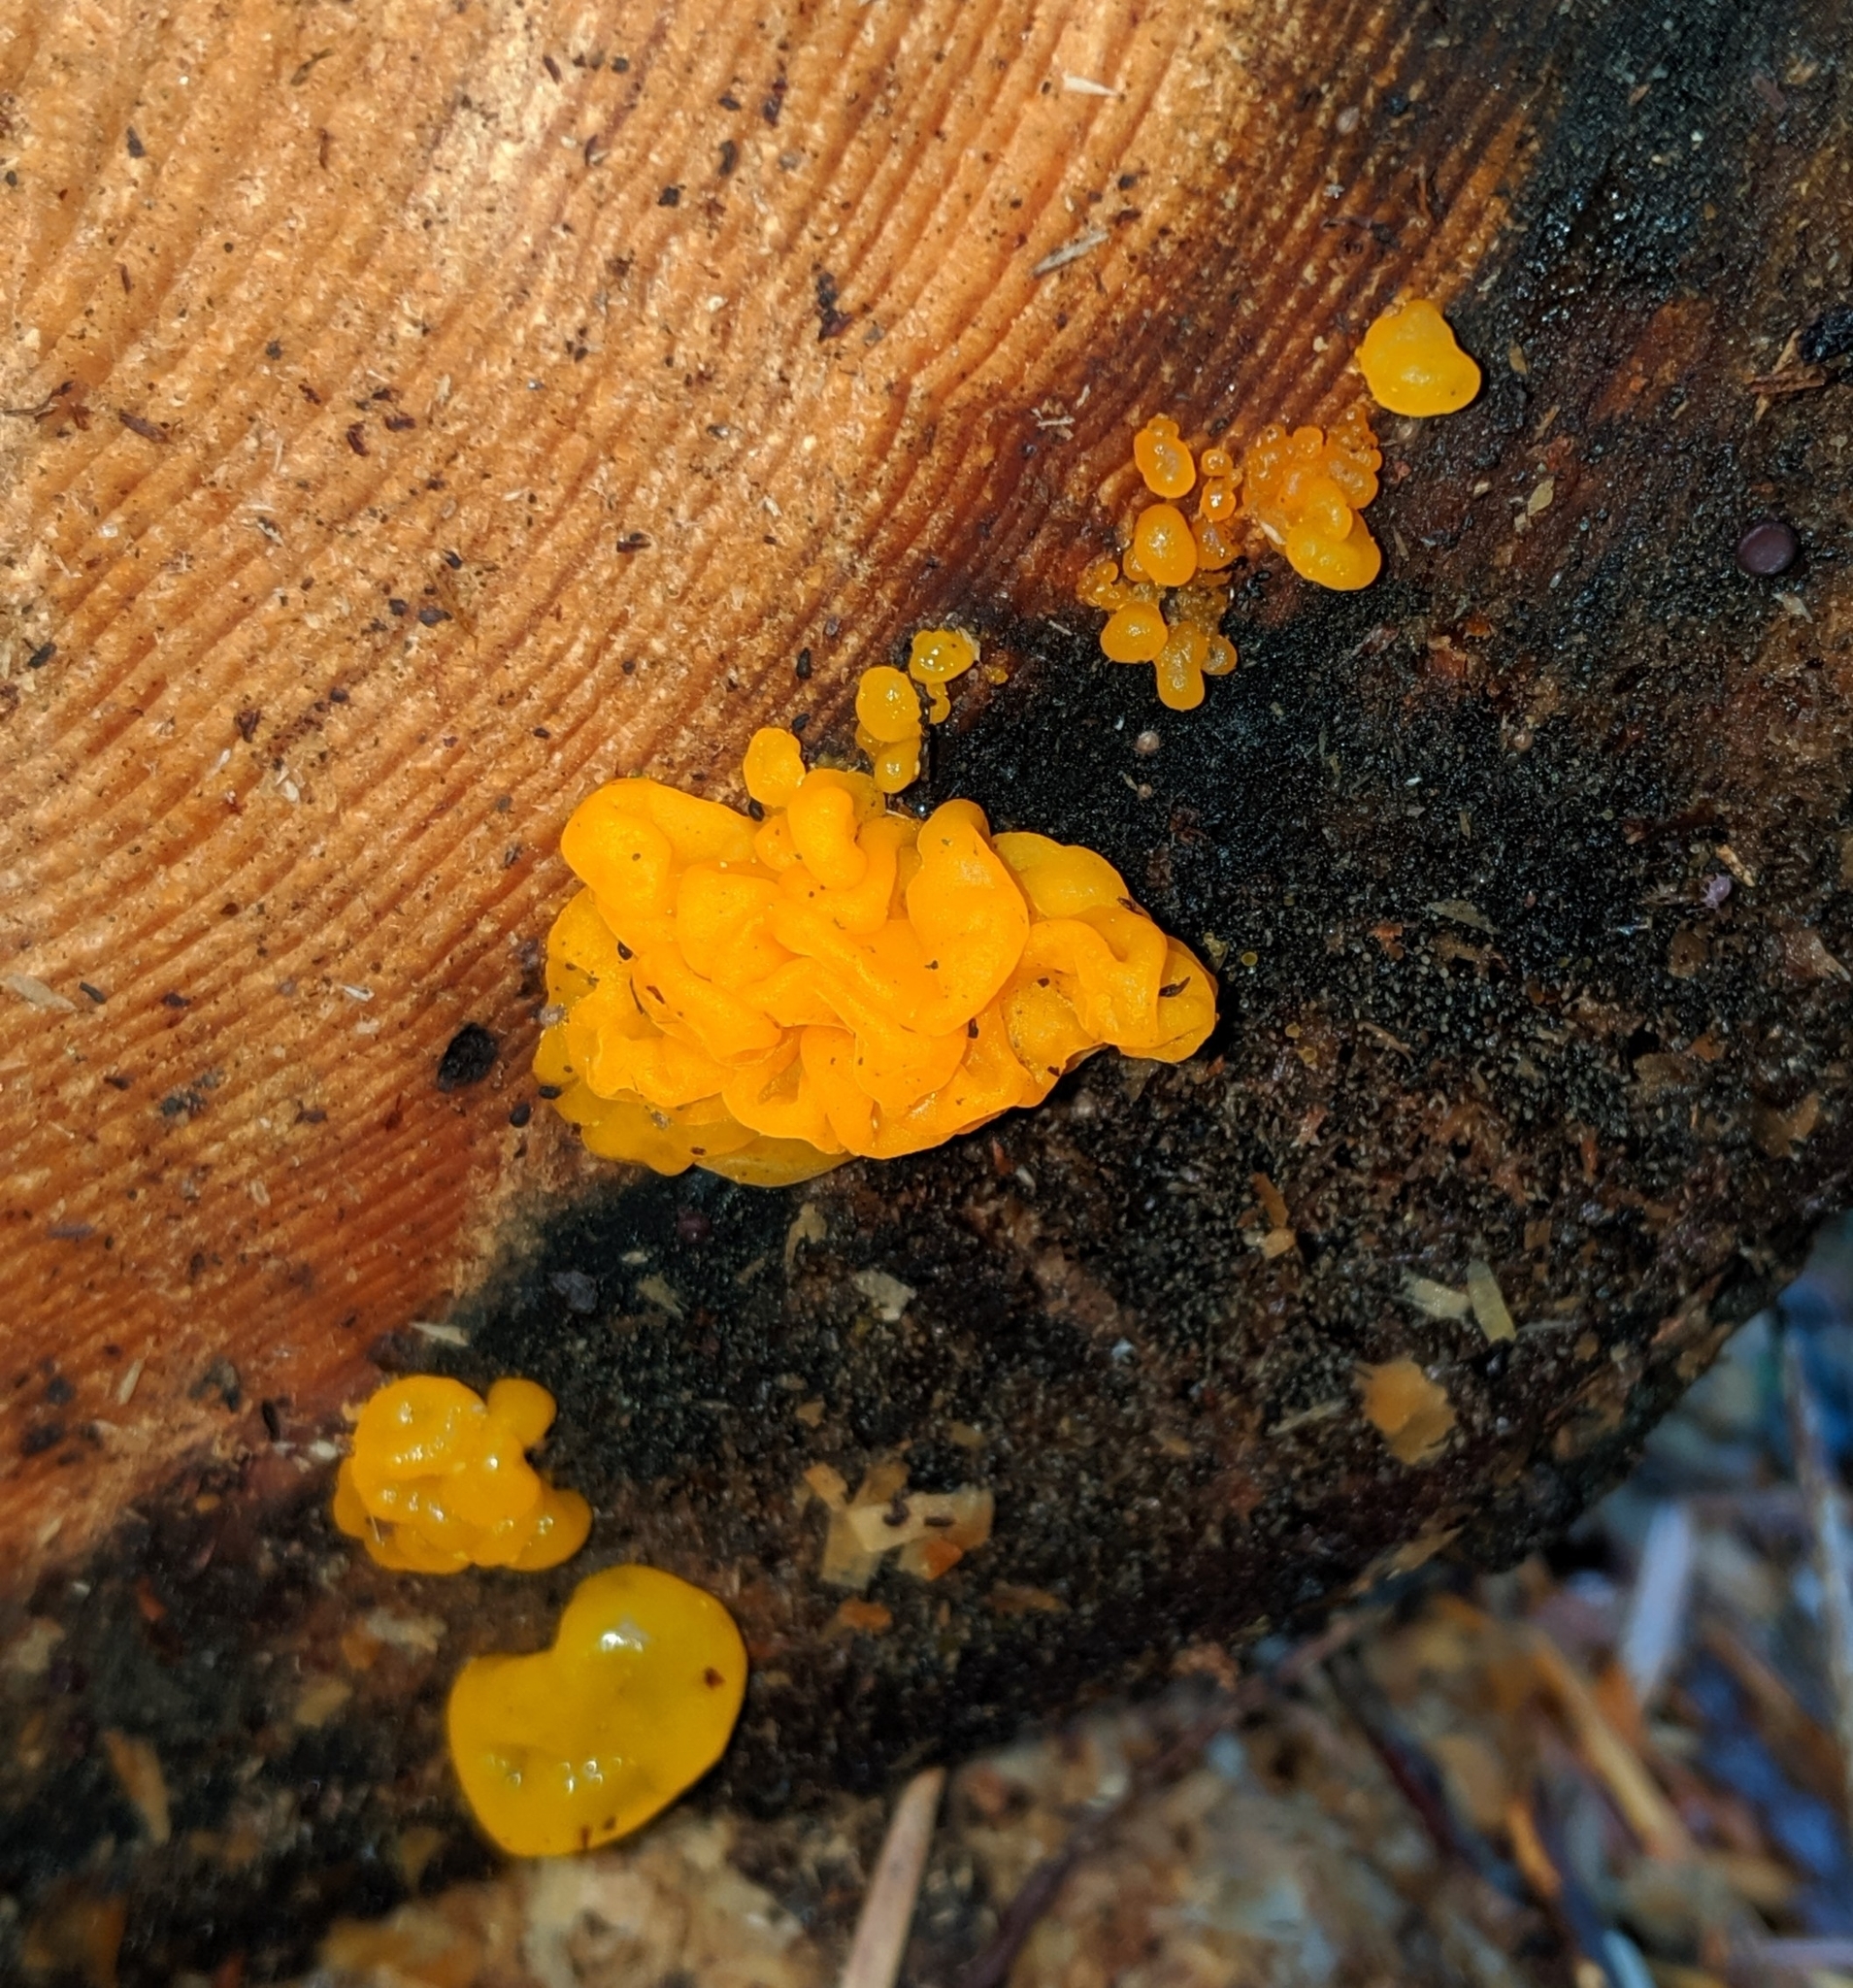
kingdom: Fungi
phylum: Basidiomycota
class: Dacrymycetes
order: Dacrymycetales
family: Dacrymycetaceae
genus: Dacrymyces
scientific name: Dacrymyces chrysospermus
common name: Orange jelly spot
